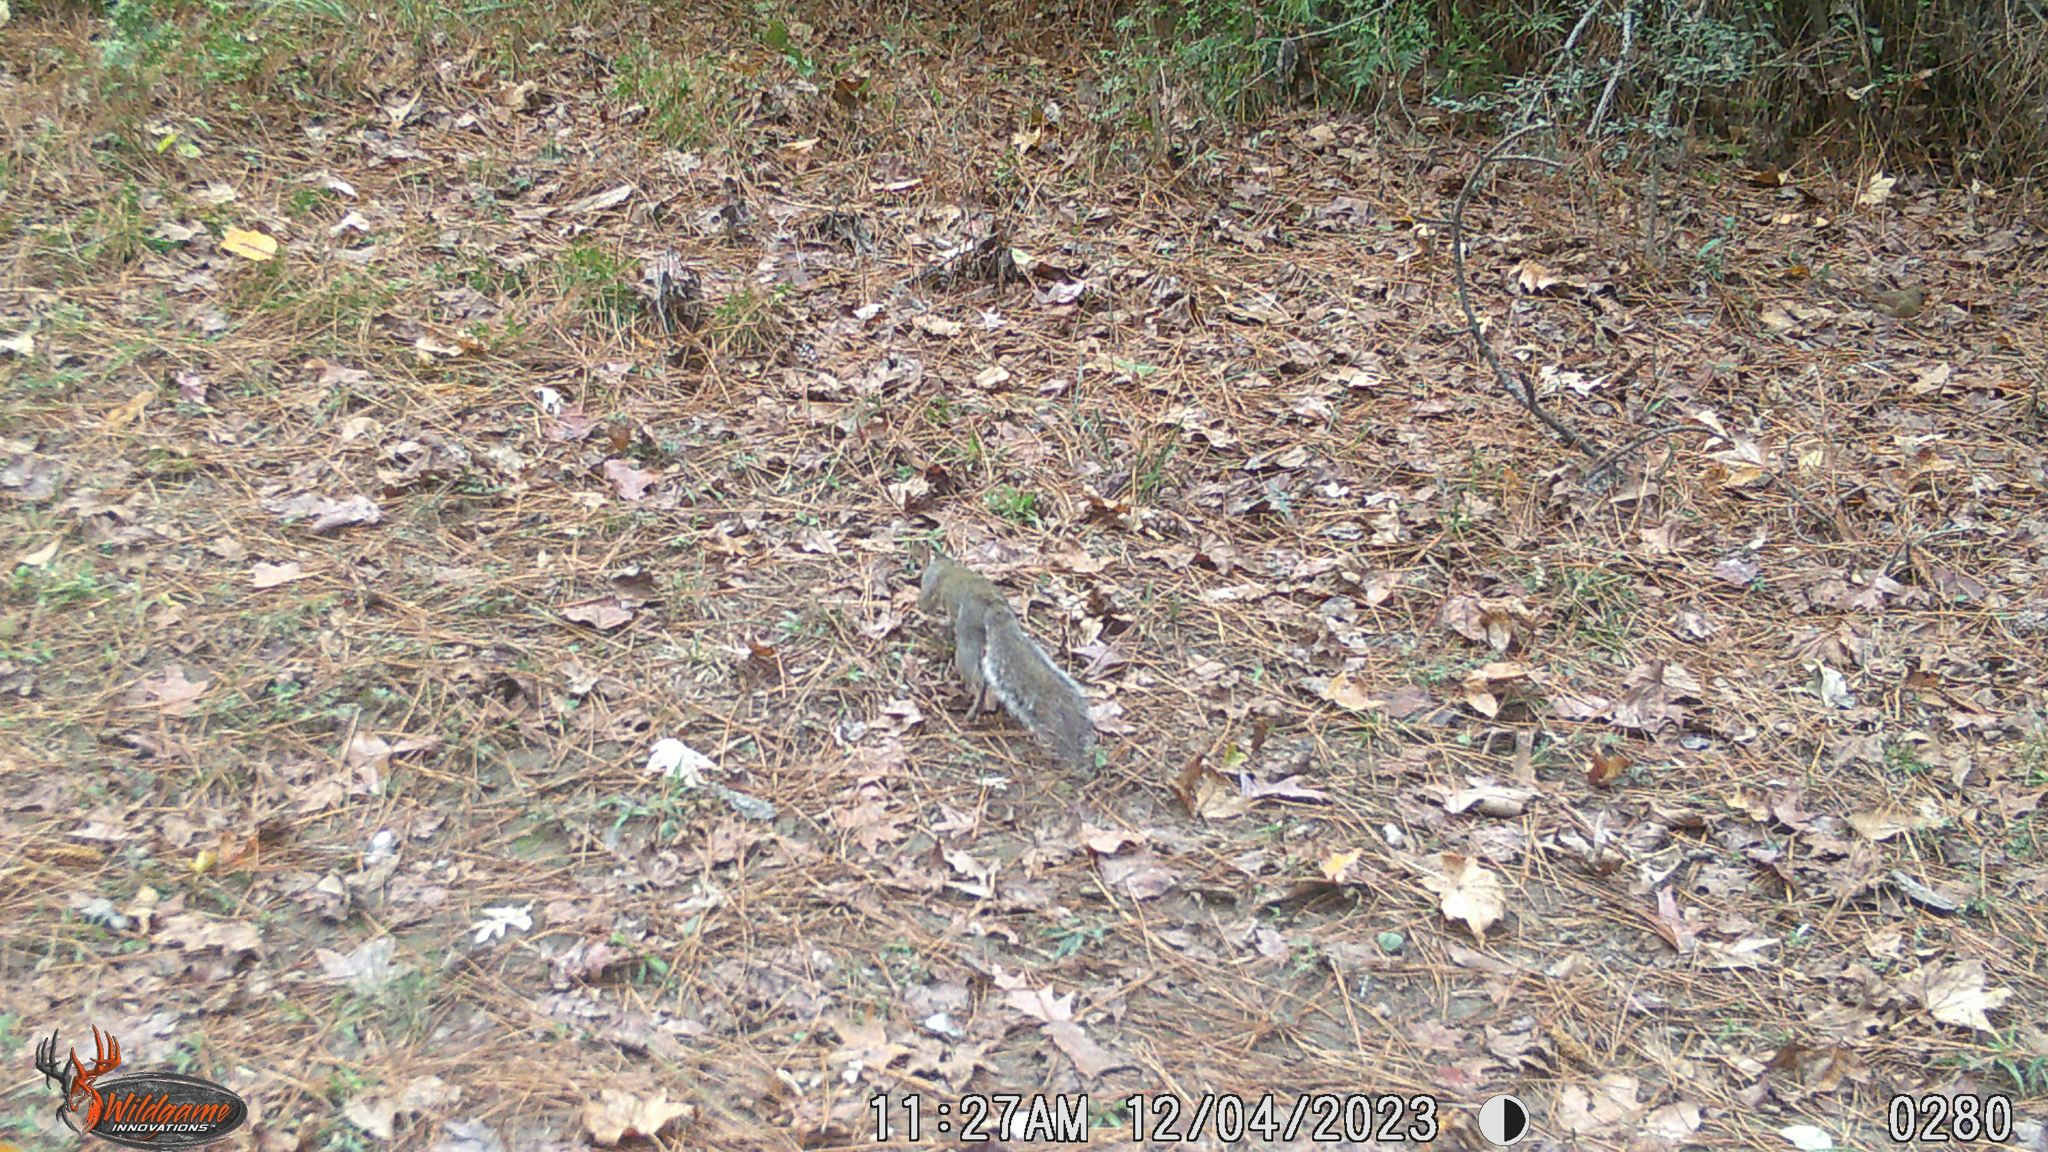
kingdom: Animalia
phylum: Chordata
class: Mammalia
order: Rodentia
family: Sciuridae
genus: Sciurus
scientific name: Sciurus carolinensis
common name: Eastern gray squirrel
